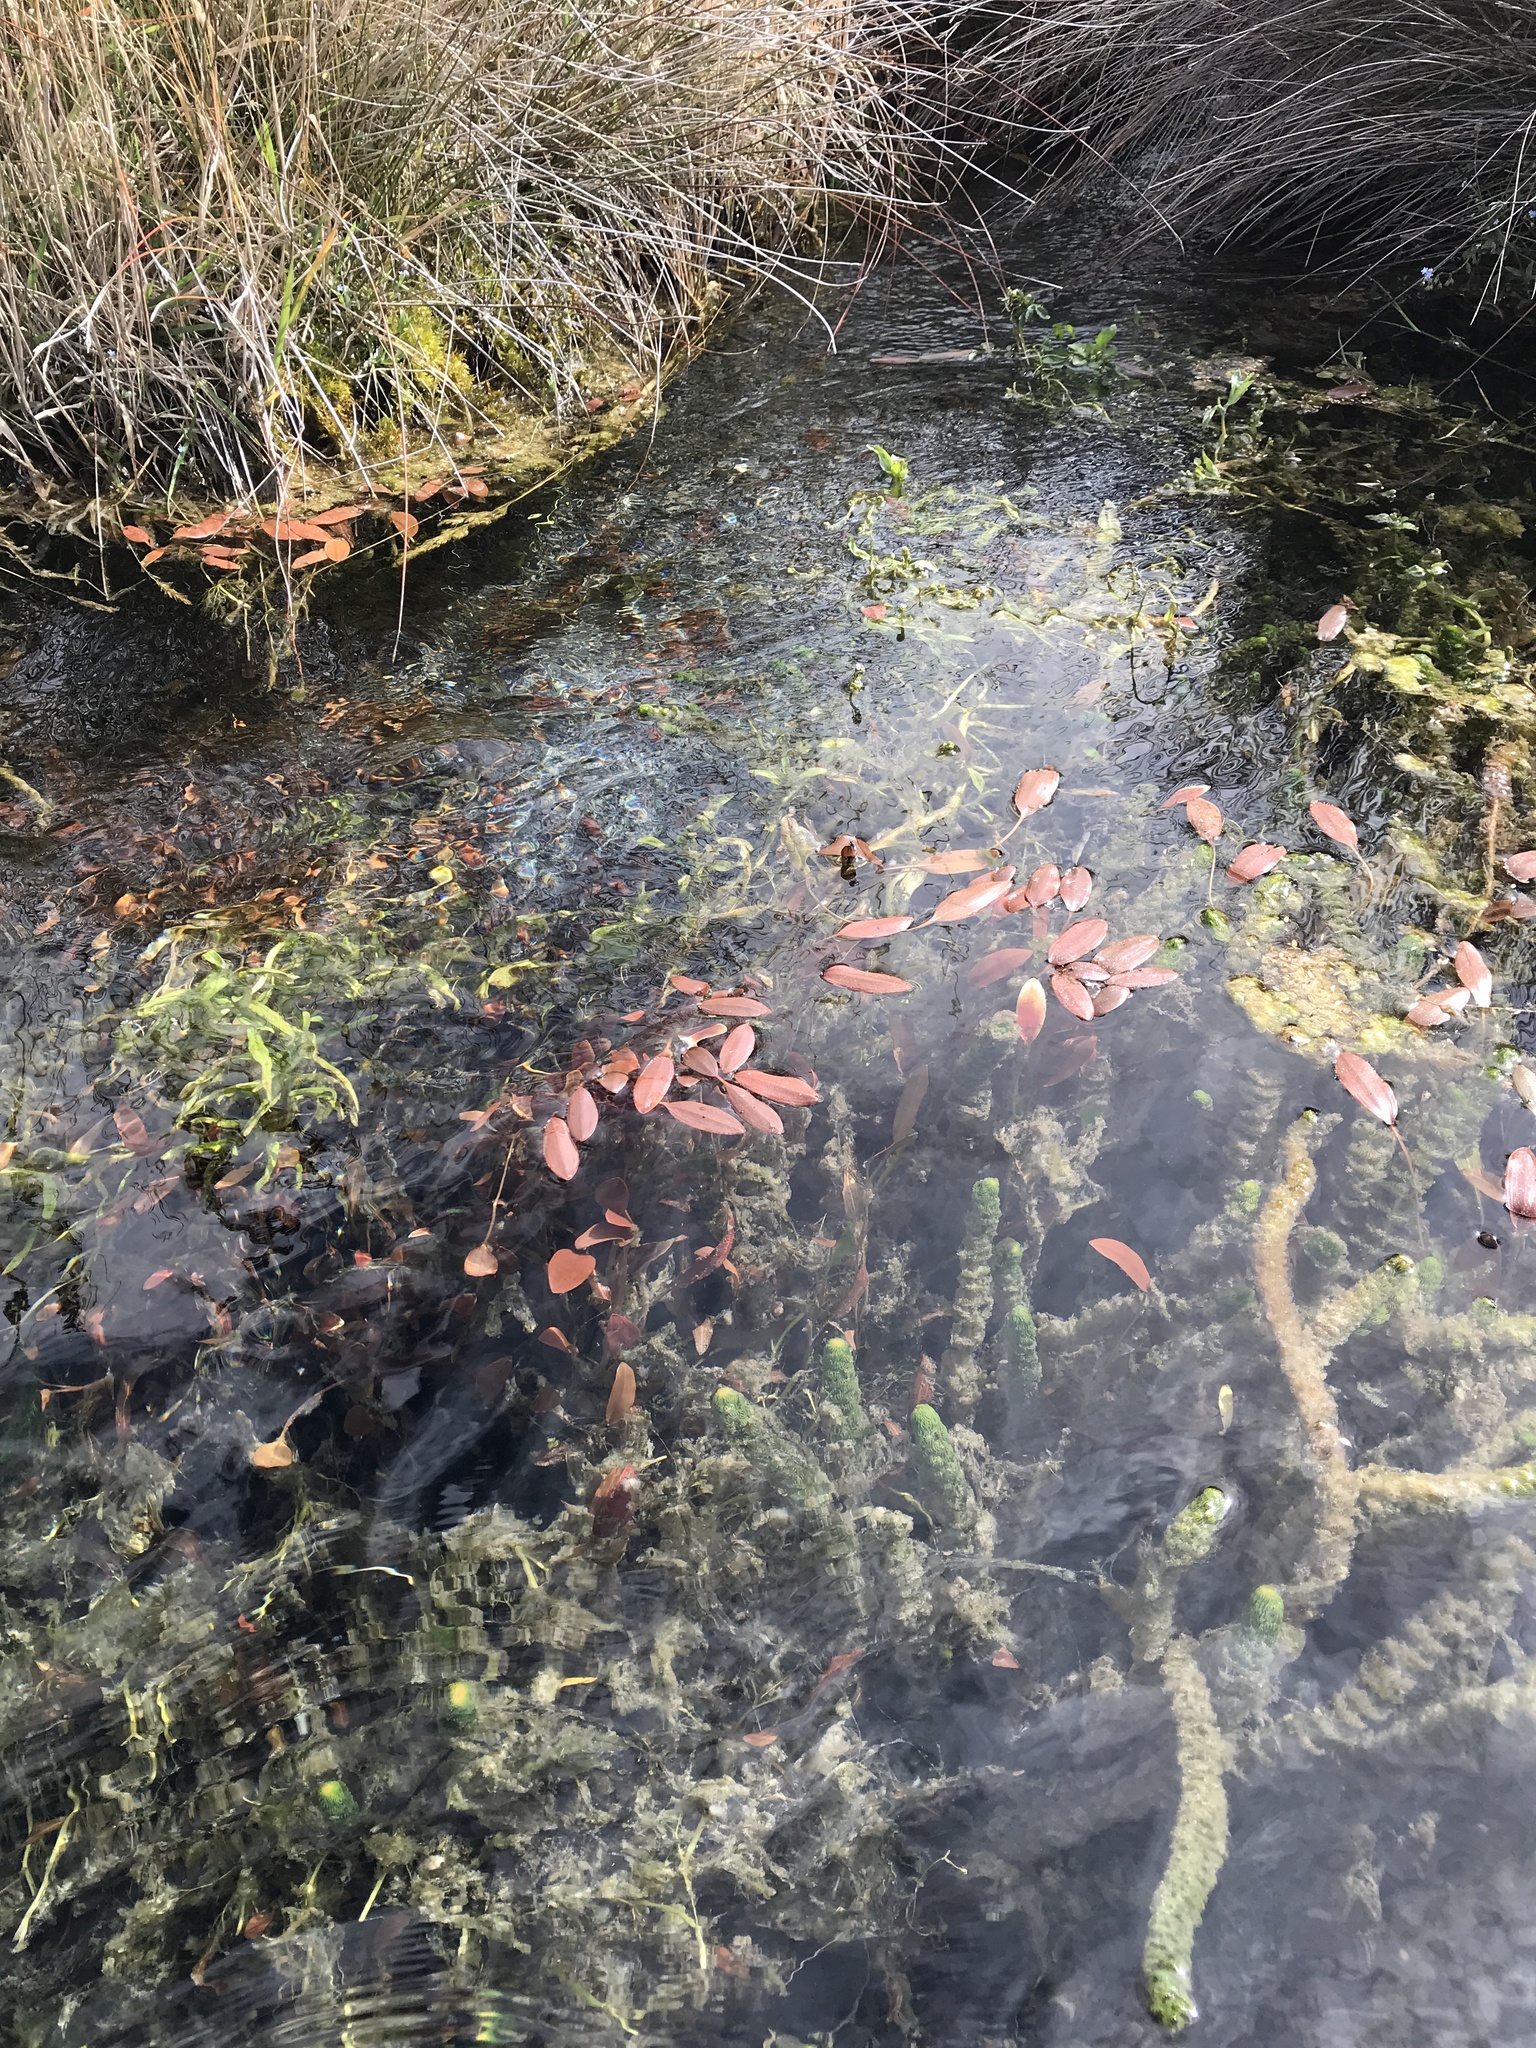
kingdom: Plantae
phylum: Tracheophyta
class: Liliopsida
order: Alismatales
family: Potamogetonaceae
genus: Potamogeton
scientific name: Potamogeton cheesemanii
